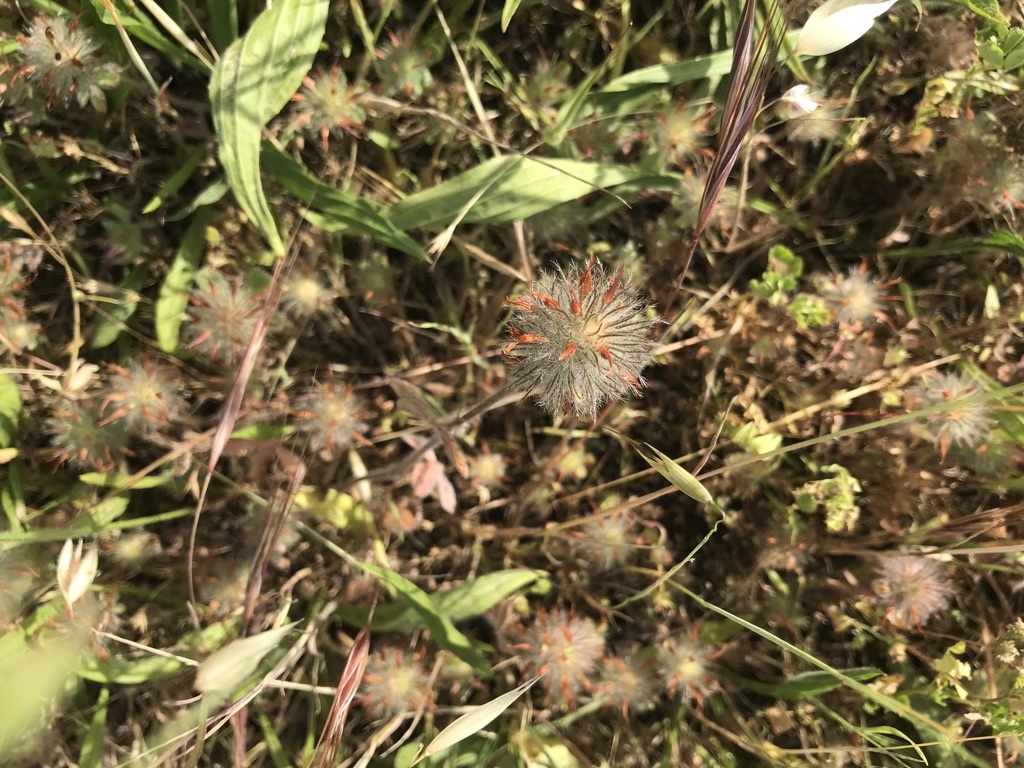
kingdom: Plantae
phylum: Tracheophyta
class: Magnoliopsida
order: Fabales
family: Fabaceae
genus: Trifolium
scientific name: Trifolium hirtum
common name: Rose clover
